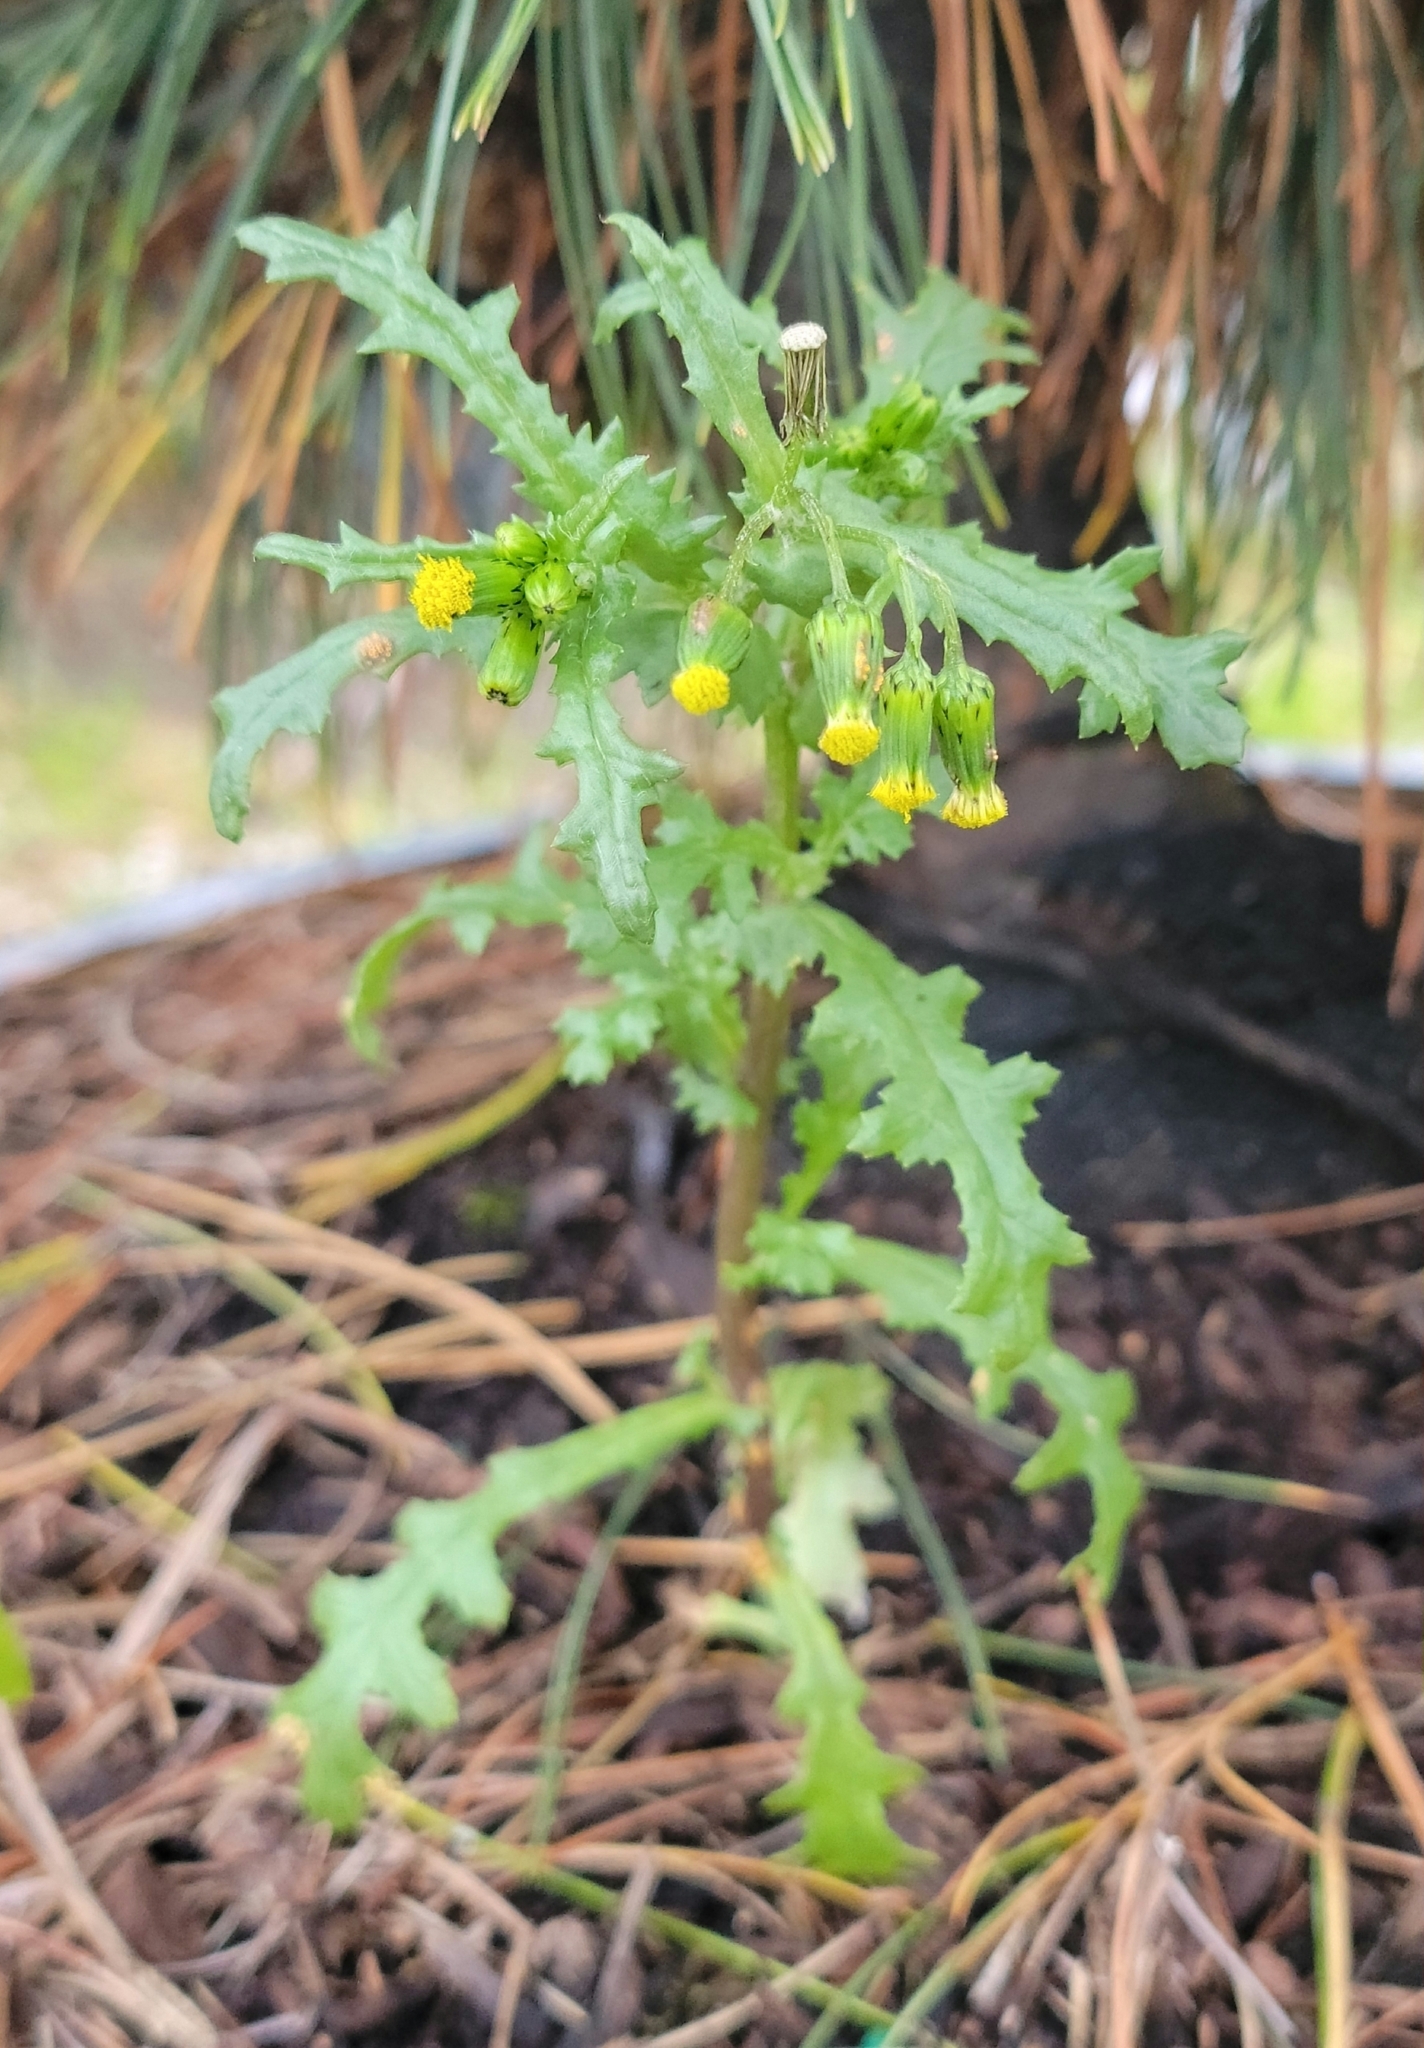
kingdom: Plantae
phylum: Tracheophyta
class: Magnoliopsida
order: Asterales
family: Asteraceae
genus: Senecio
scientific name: Senecio vulgaris
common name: Old-man-in-the-spring
